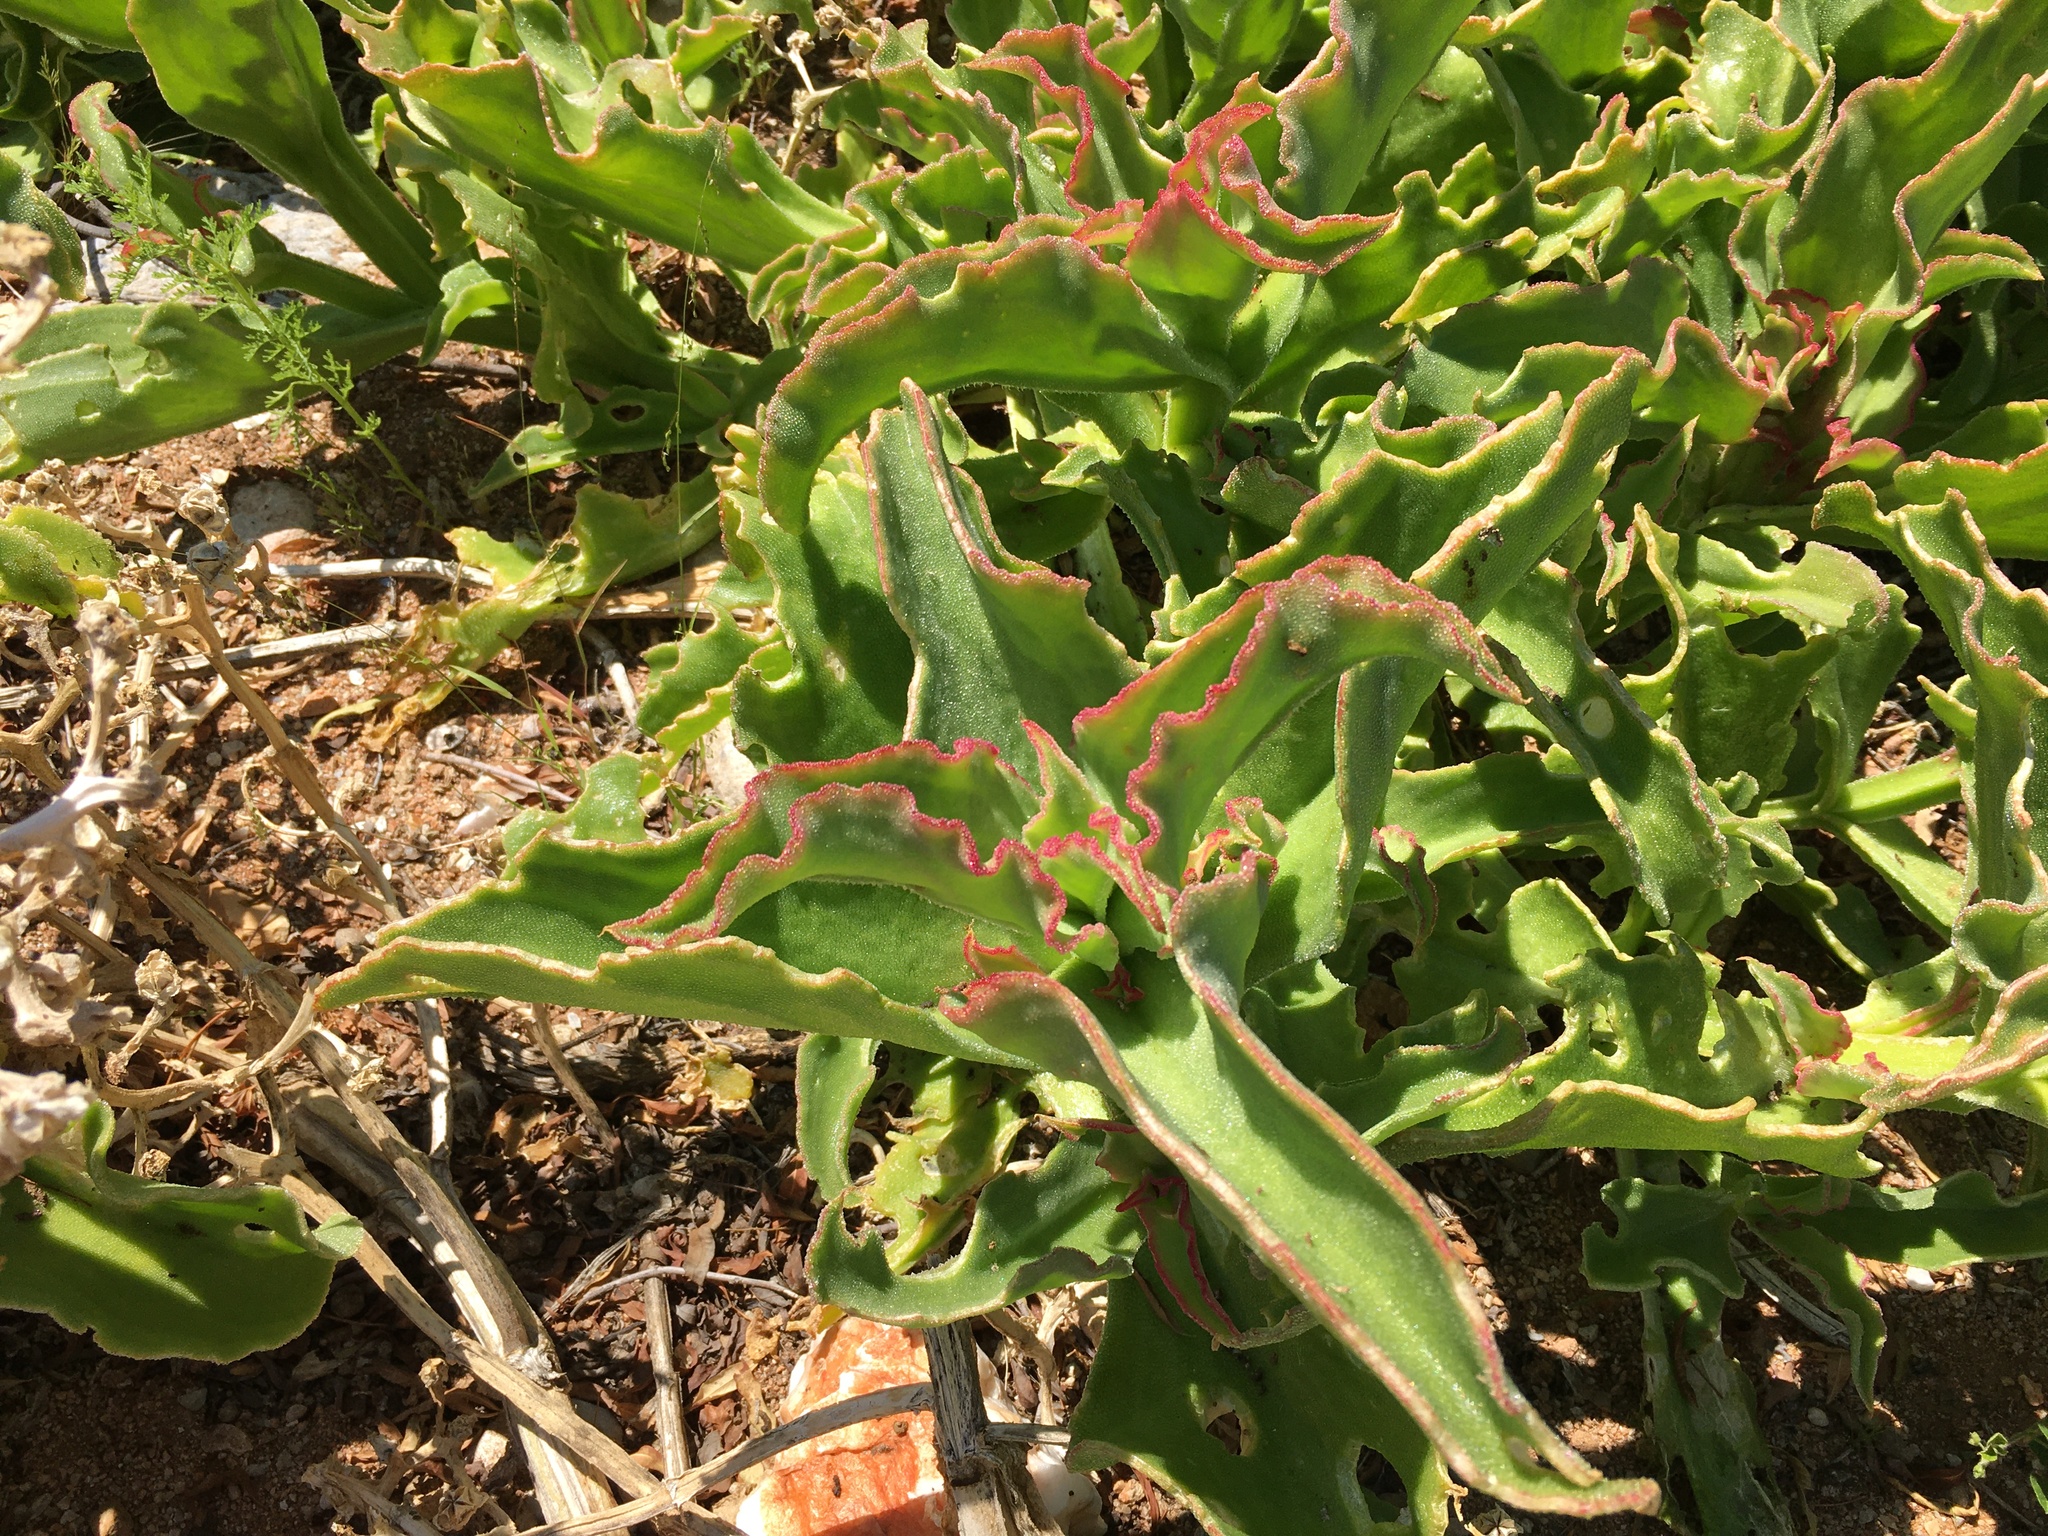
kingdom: Plantae
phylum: Tracheophyta
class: Magnoliopsida
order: Caryophyllales
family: Aizoaceae
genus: Mesembryanthemum
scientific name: Mesembryanthemum guerichianum
